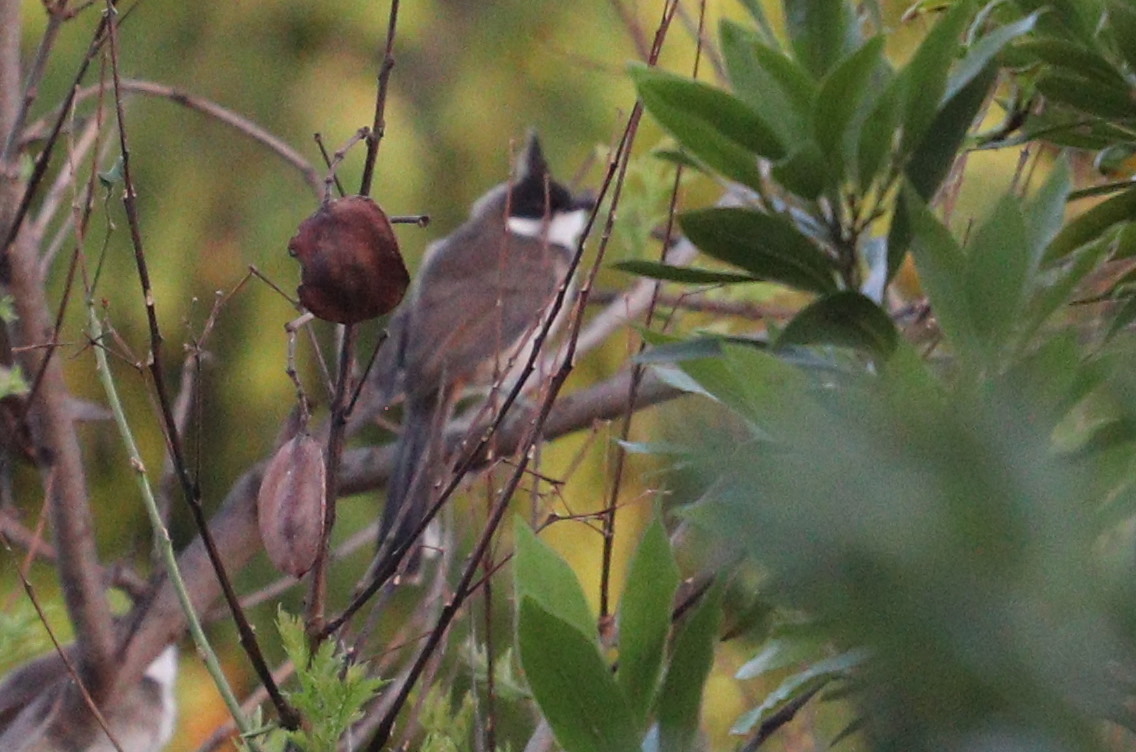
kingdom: Animalia
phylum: Chordata
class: Aves
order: Passeriformes
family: Pycnonotidae
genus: Pycnonotus
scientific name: Pycnonotus jocosus
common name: Red-whiskered bulbul
